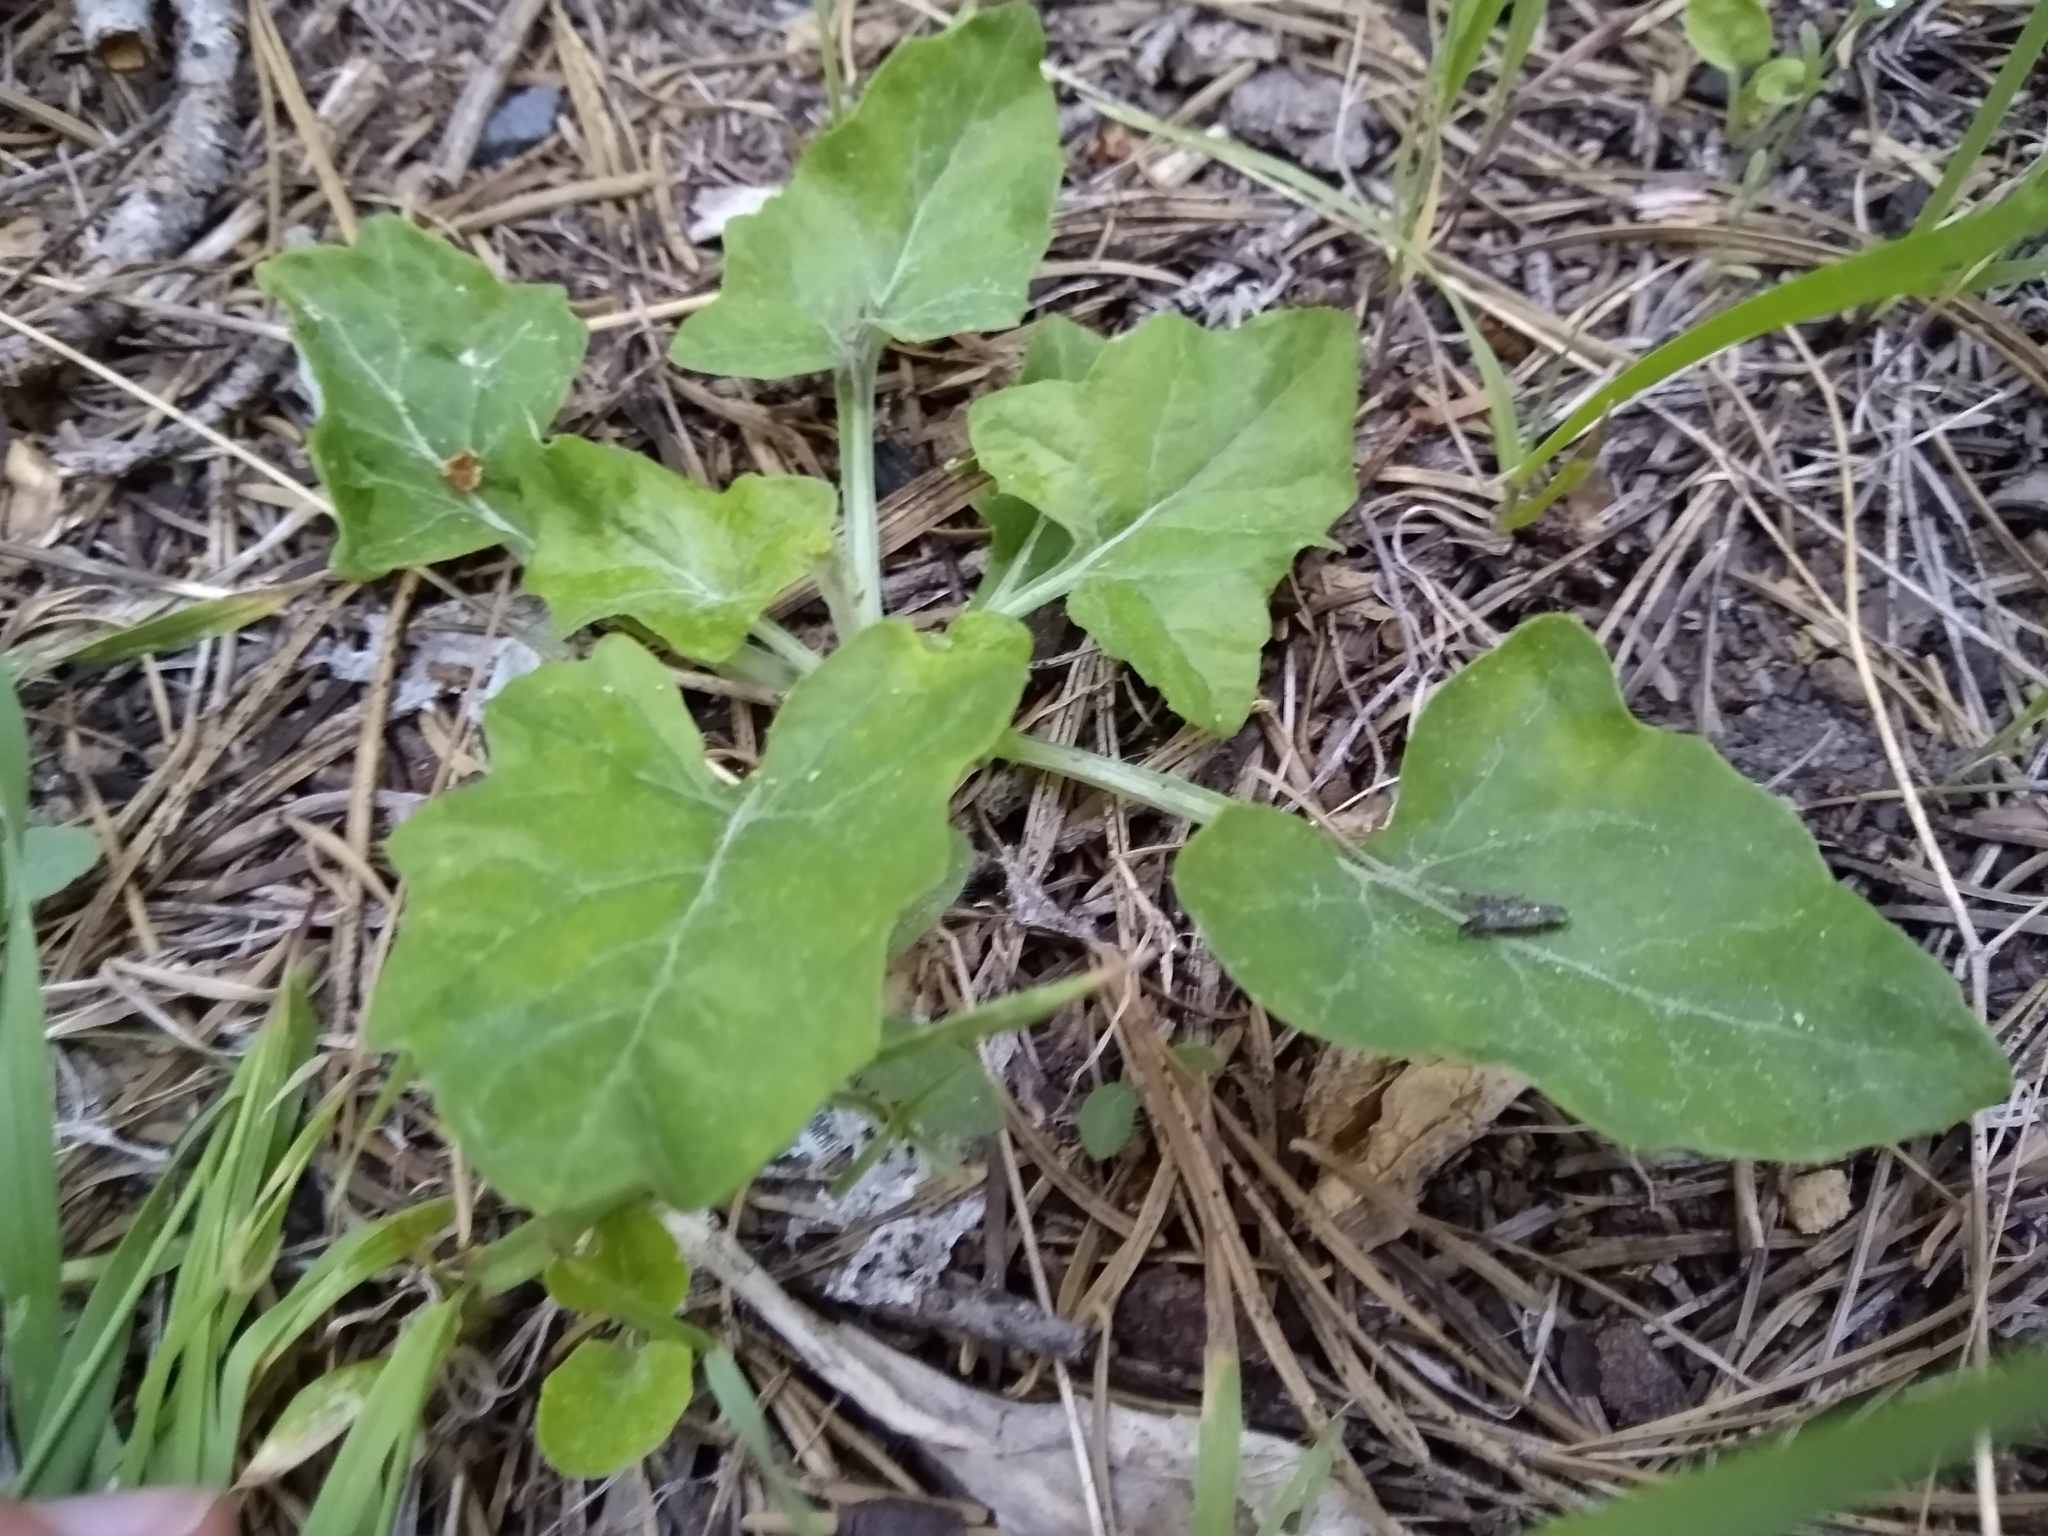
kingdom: Plantae
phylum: Tracheophyta
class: Magnoliopsida
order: Asterales
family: Asteraceae
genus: Adenocaulon
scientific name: Adenocaulon bicolor
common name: Trailplant
